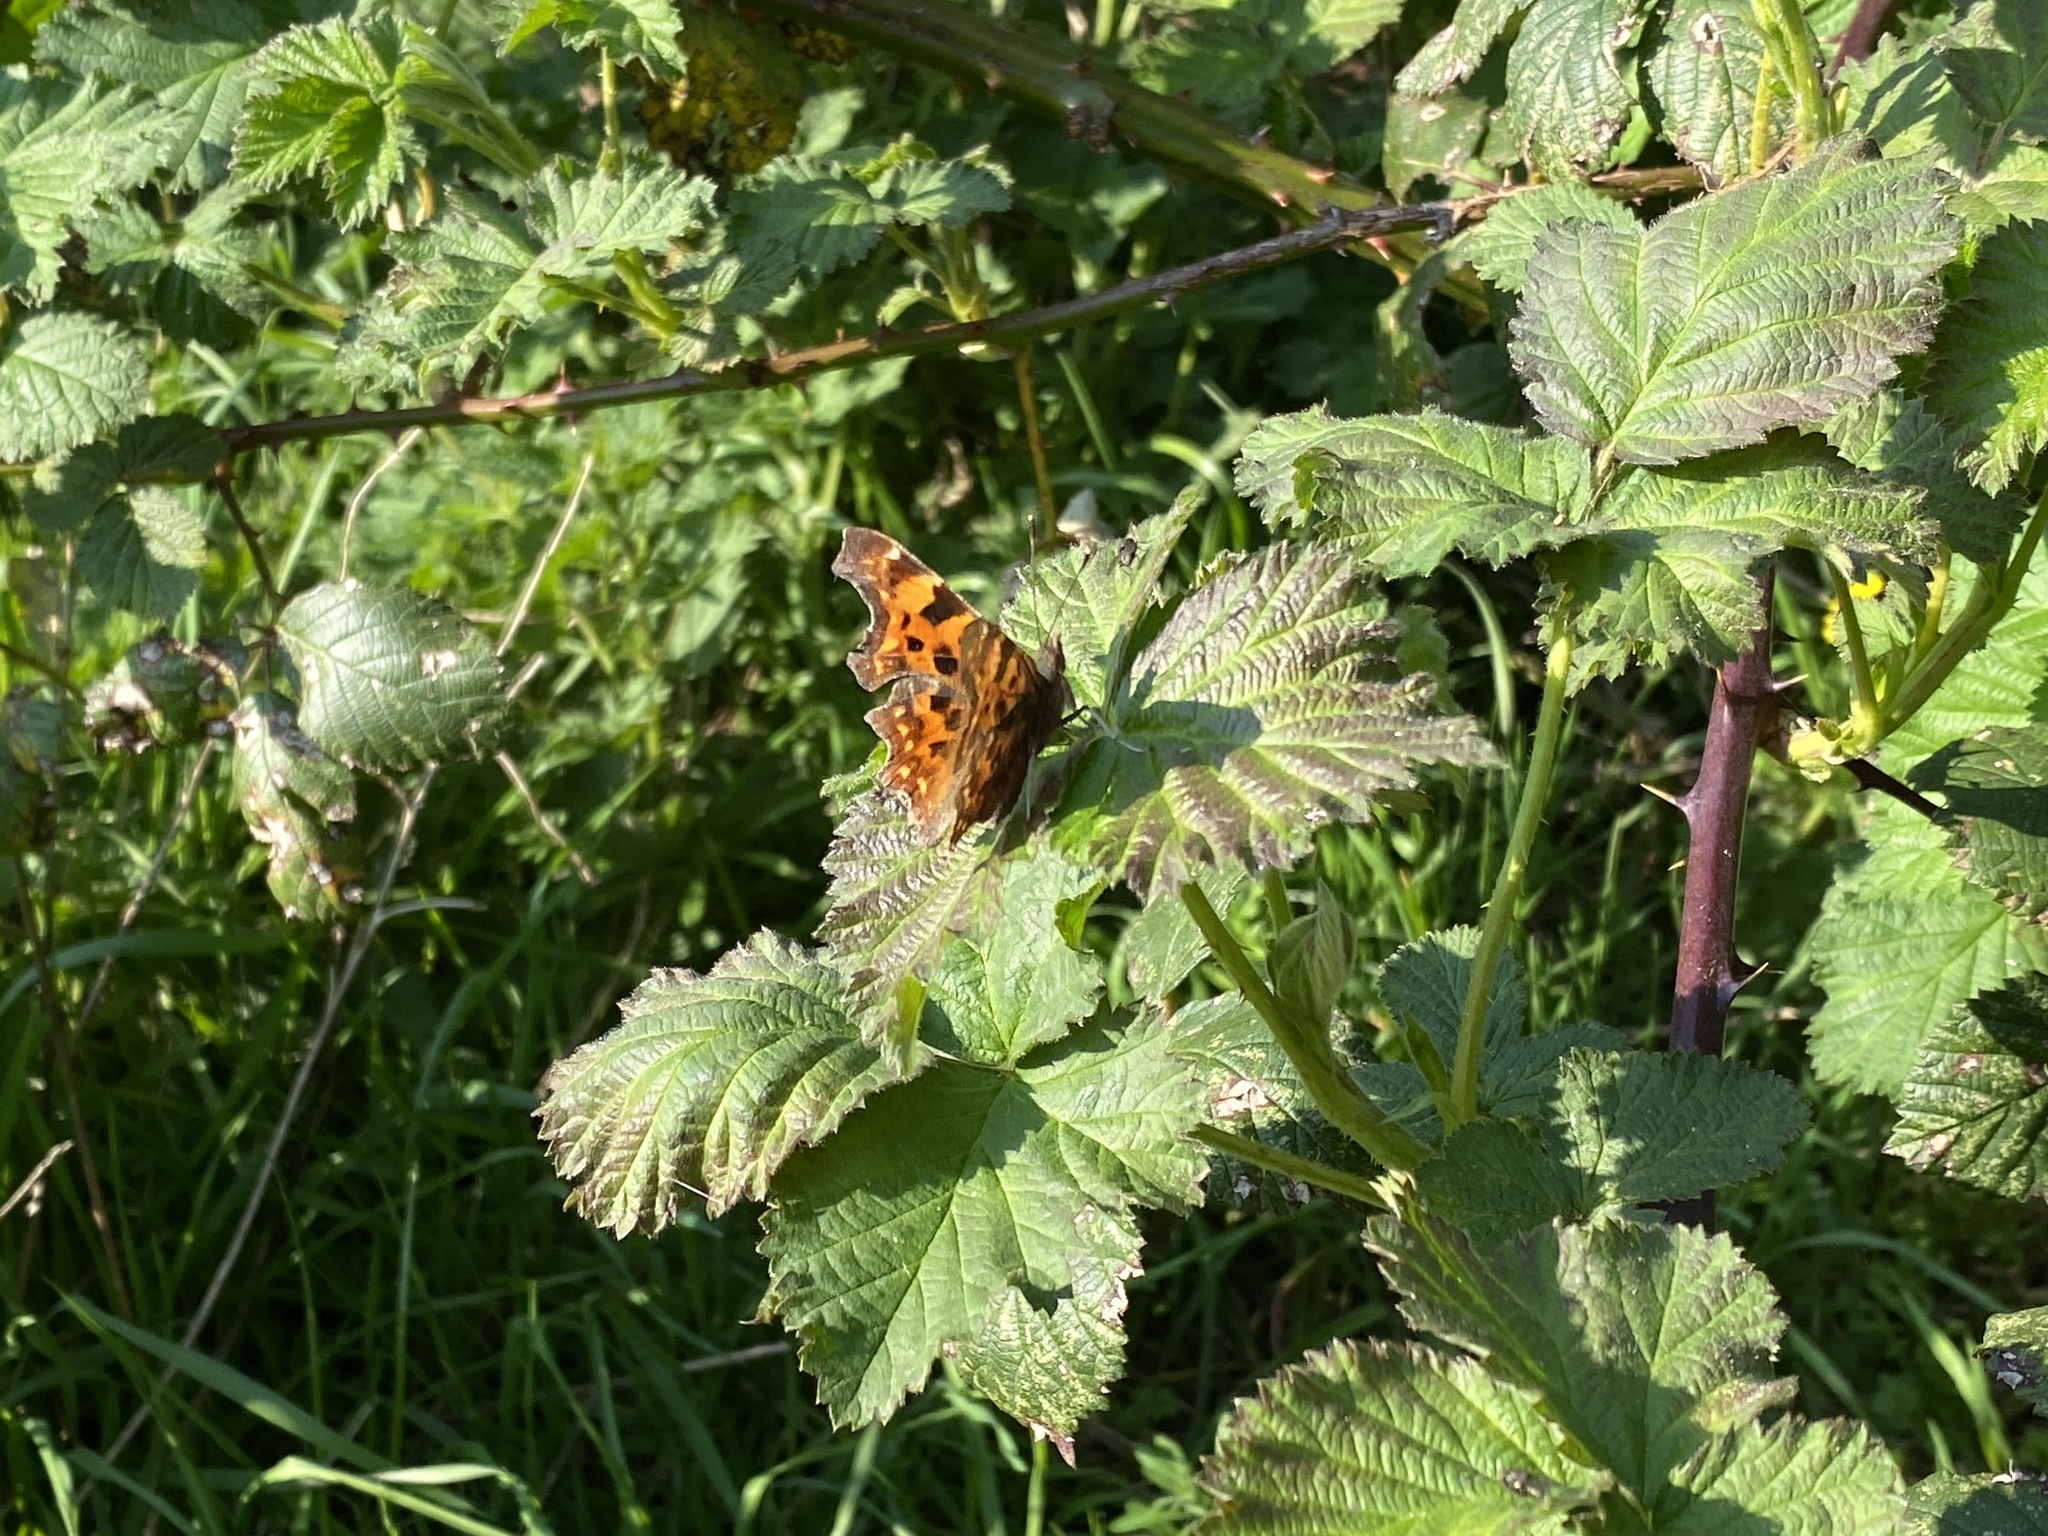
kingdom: Animalia
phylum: Arthropoda
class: Insecta
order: Lepidoptera
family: Nymphalidae
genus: Polygonia
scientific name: Polygonia c-album
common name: Comma
